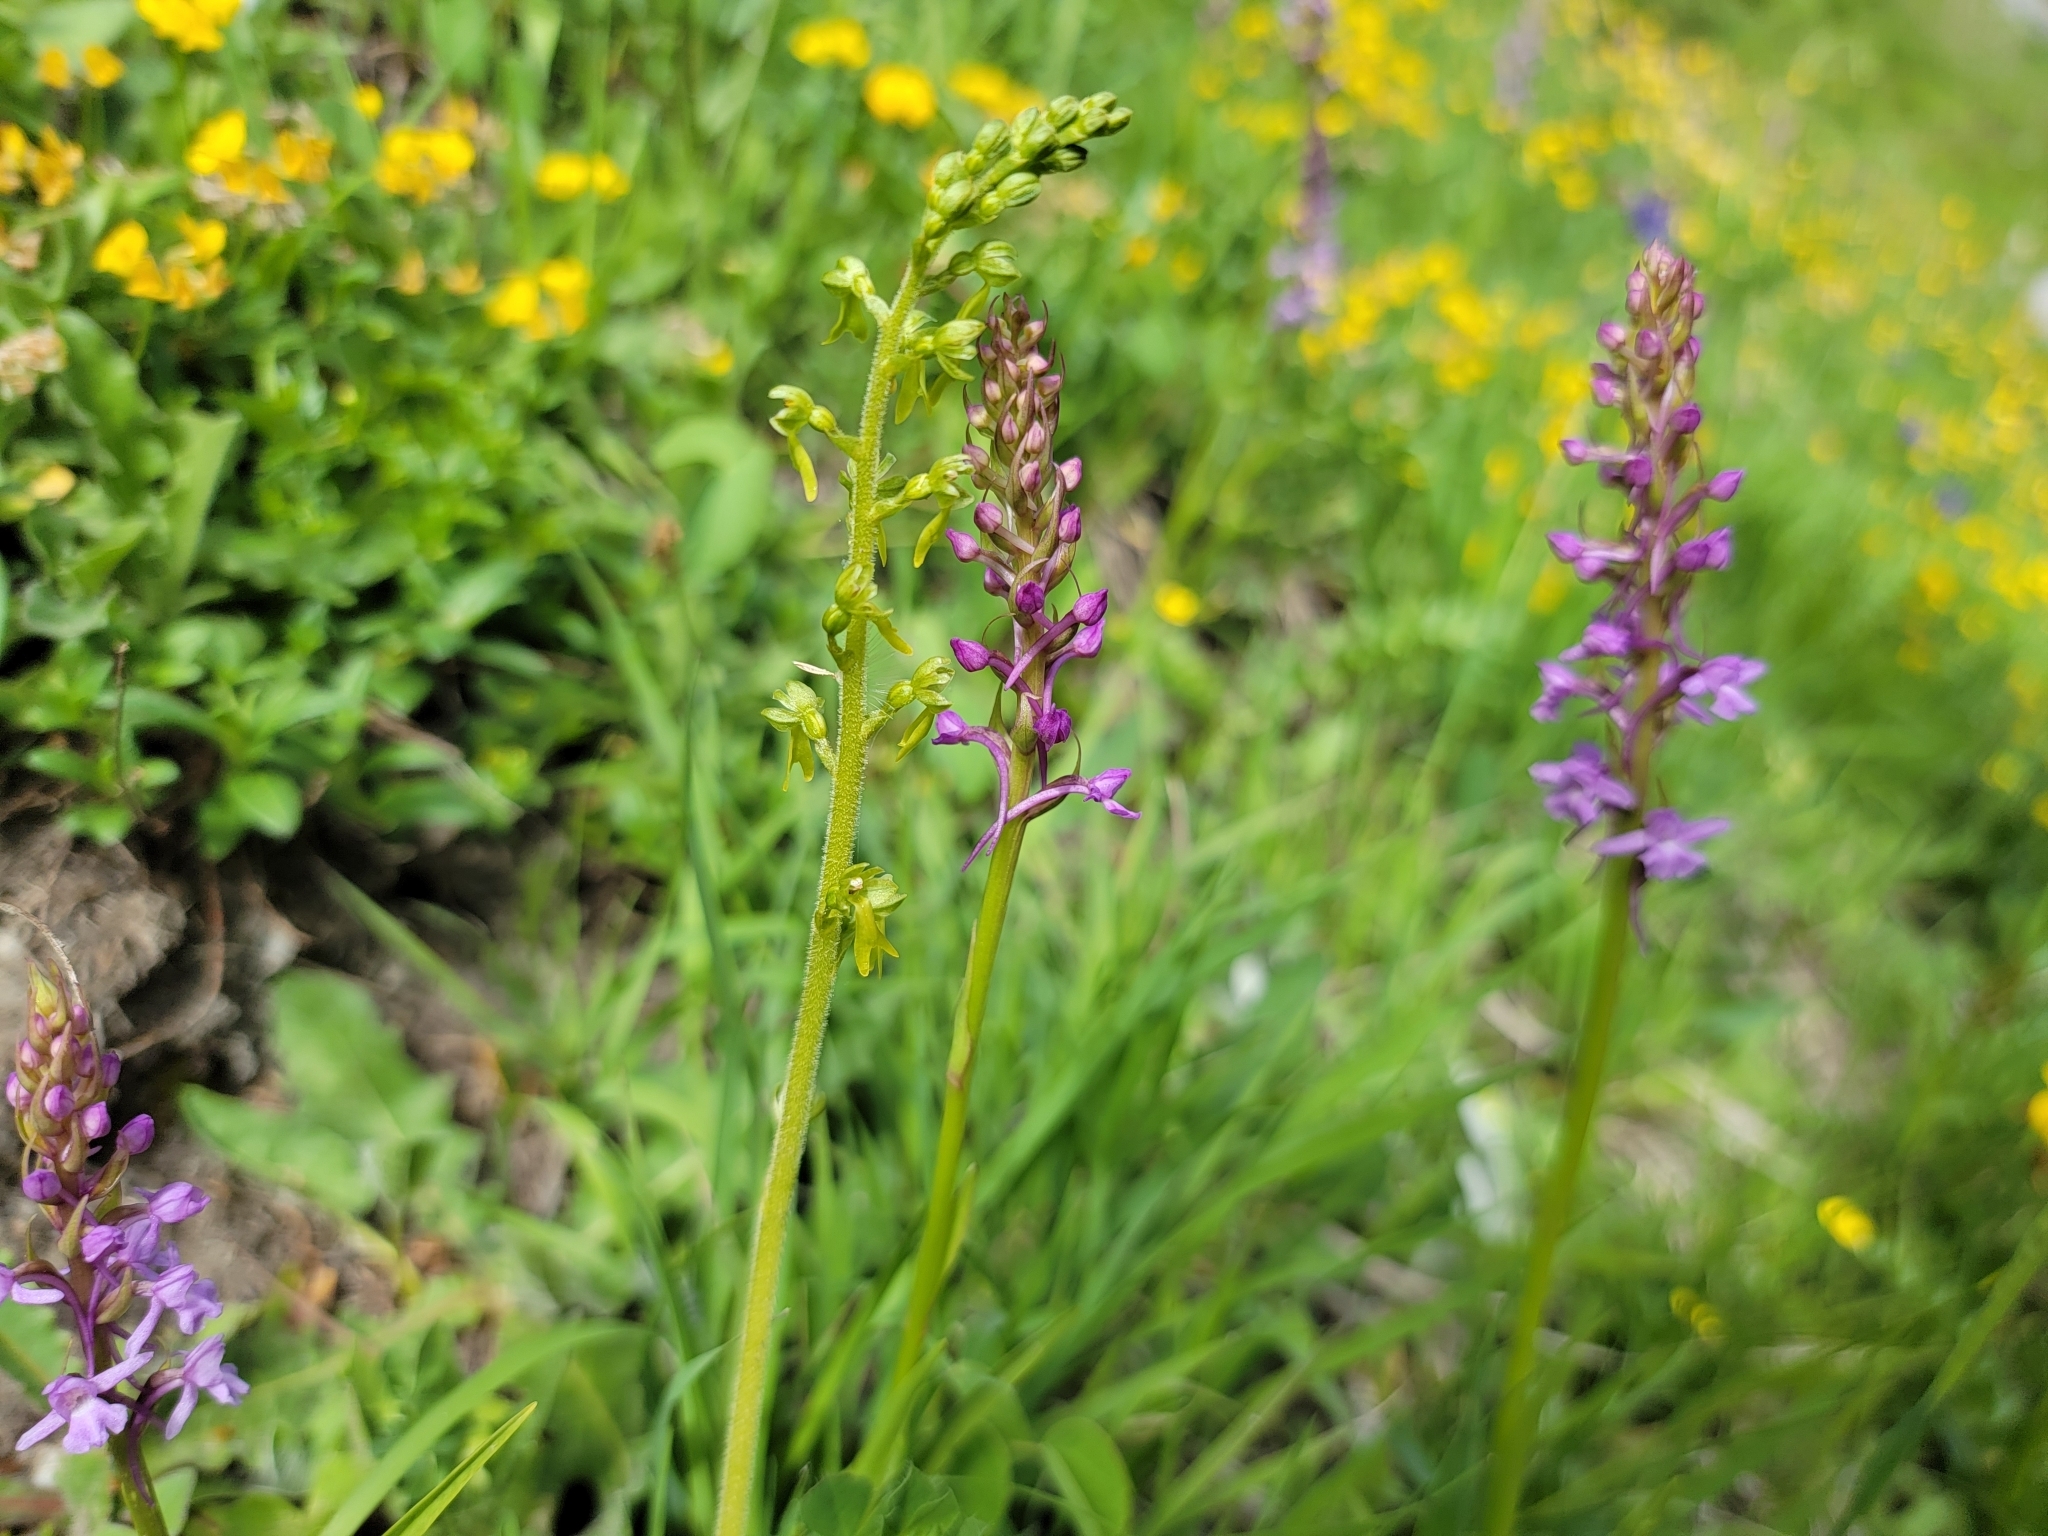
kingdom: Plantae
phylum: Tracheophyta
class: Liliopsida
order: Asparagales
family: Orchidaceae
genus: Neottia
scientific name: Neottia ovata
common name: Common twayblade
